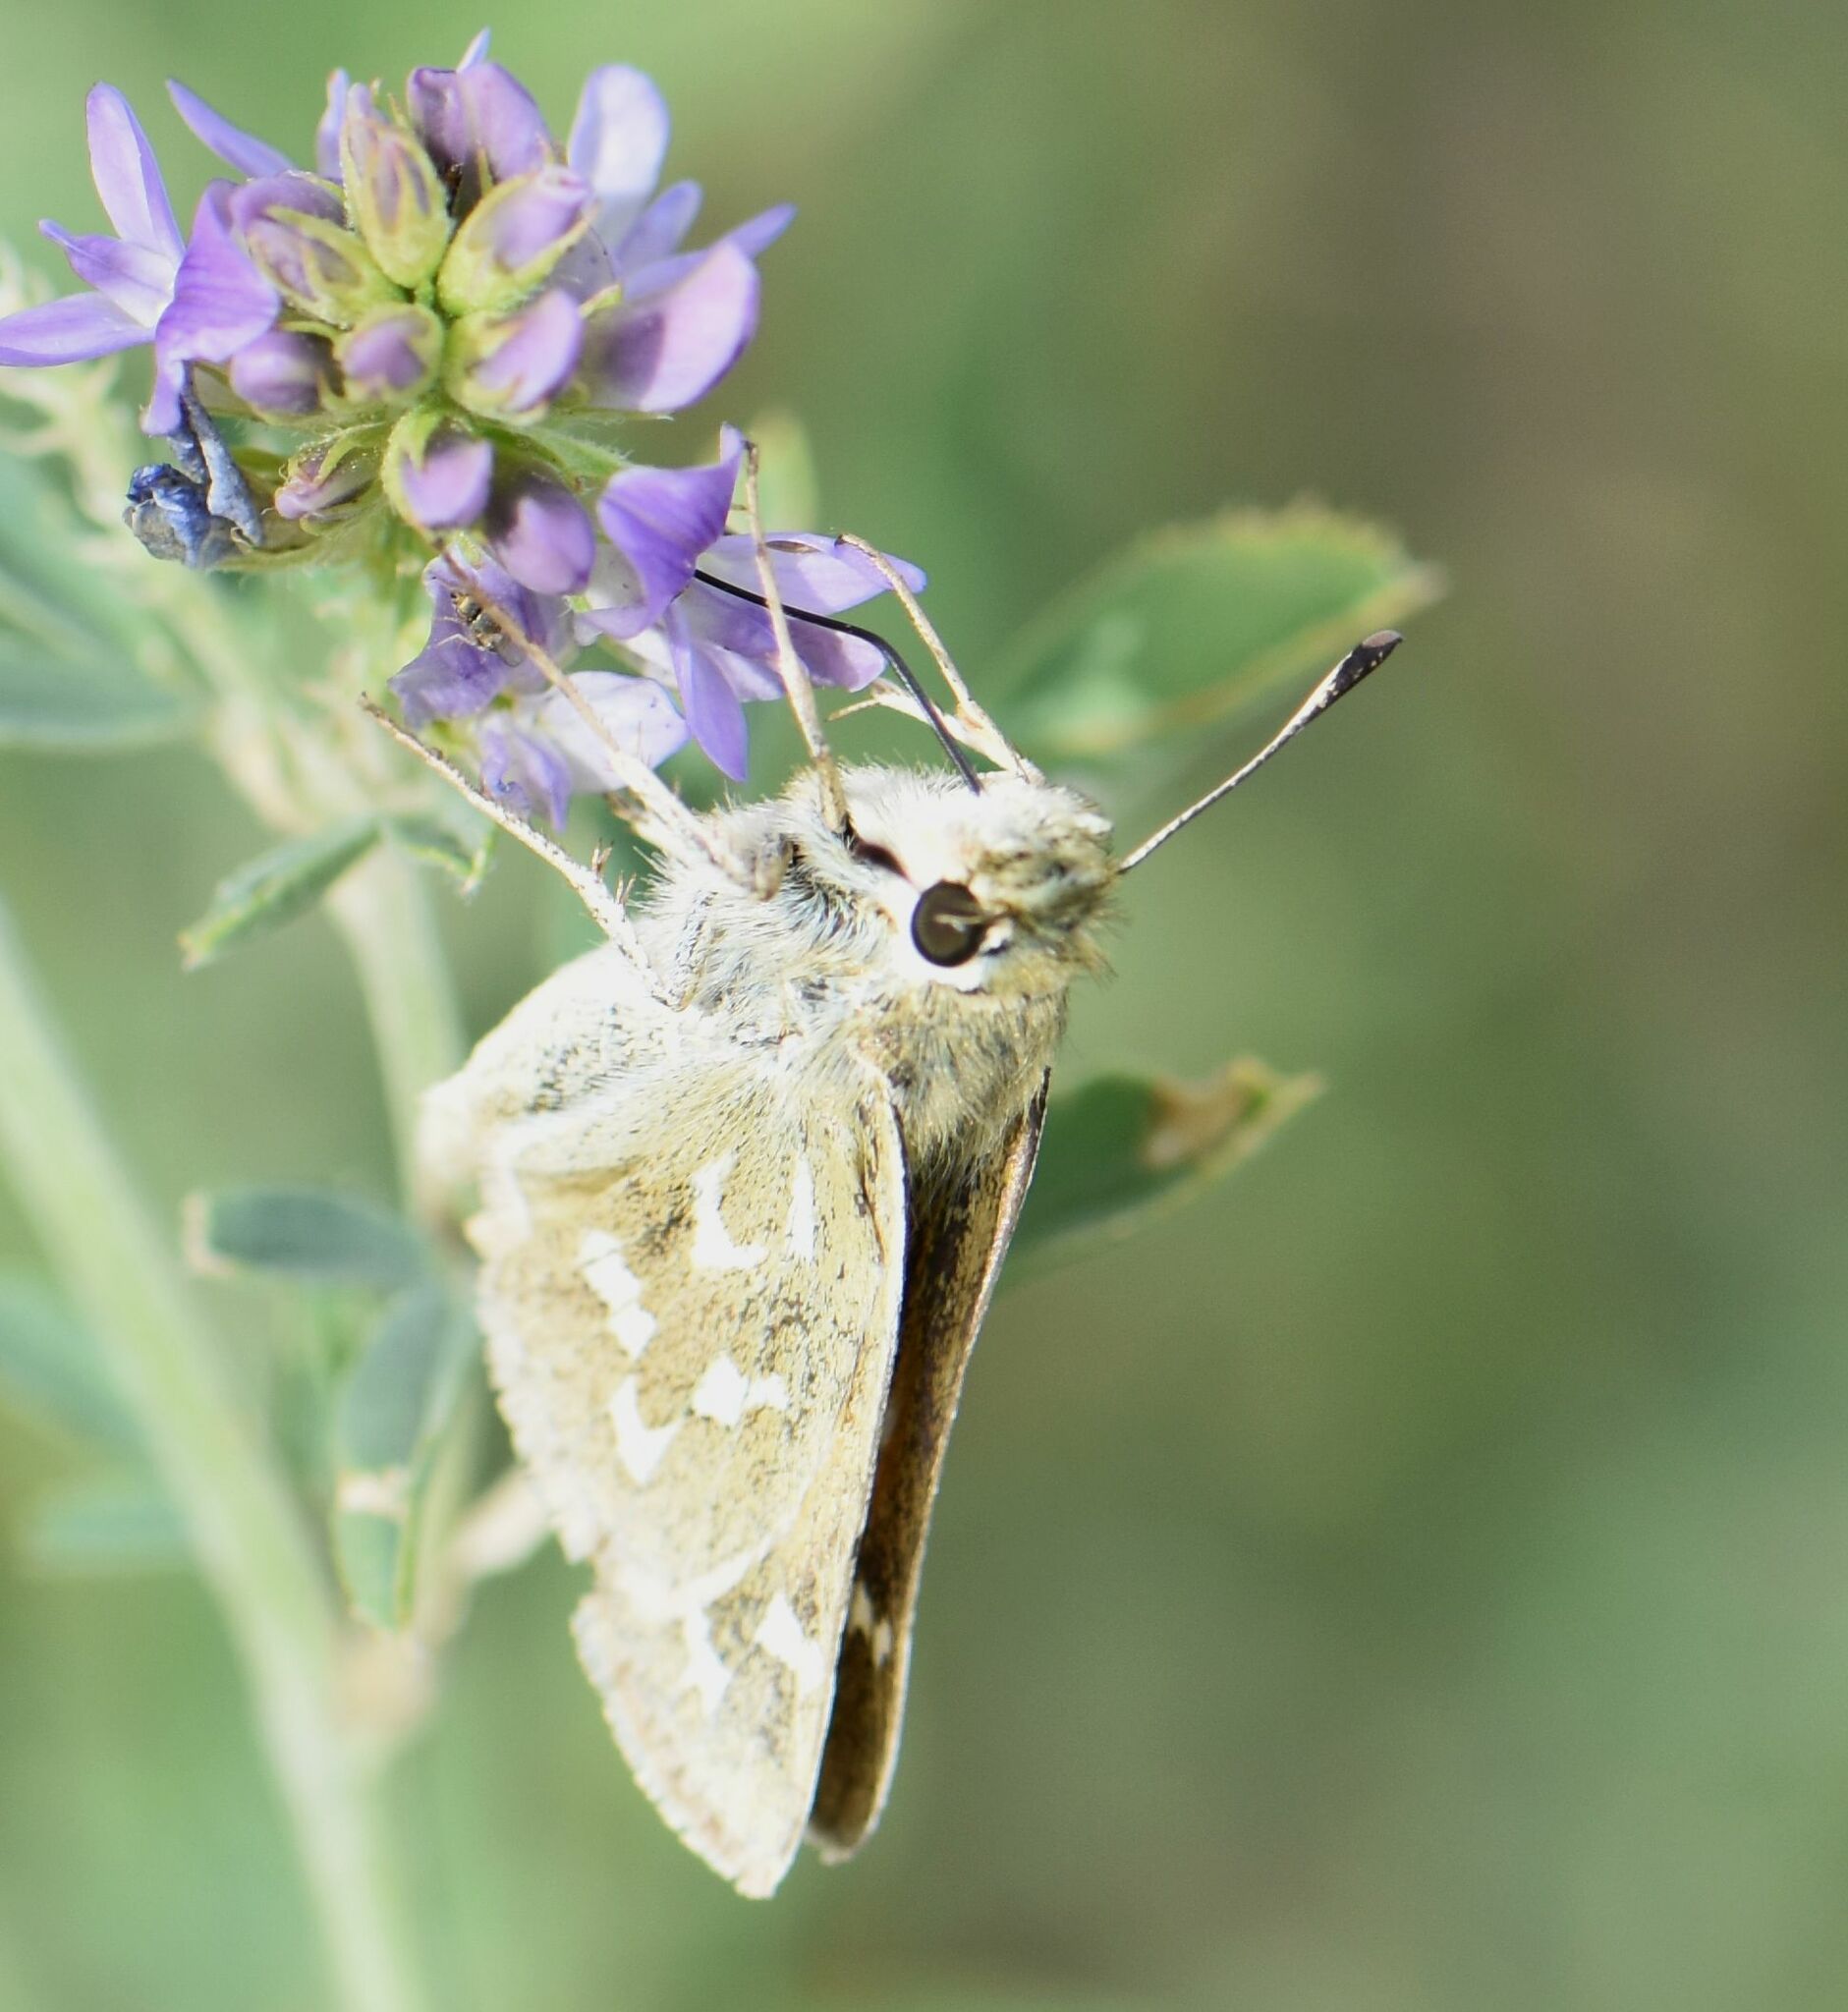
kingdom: Animalia
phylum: Arthropoda
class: Insecta
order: Lepidoptera
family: Hesperiidae
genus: Hesperia
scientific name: Hesperia comma
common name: Common branded skipper
